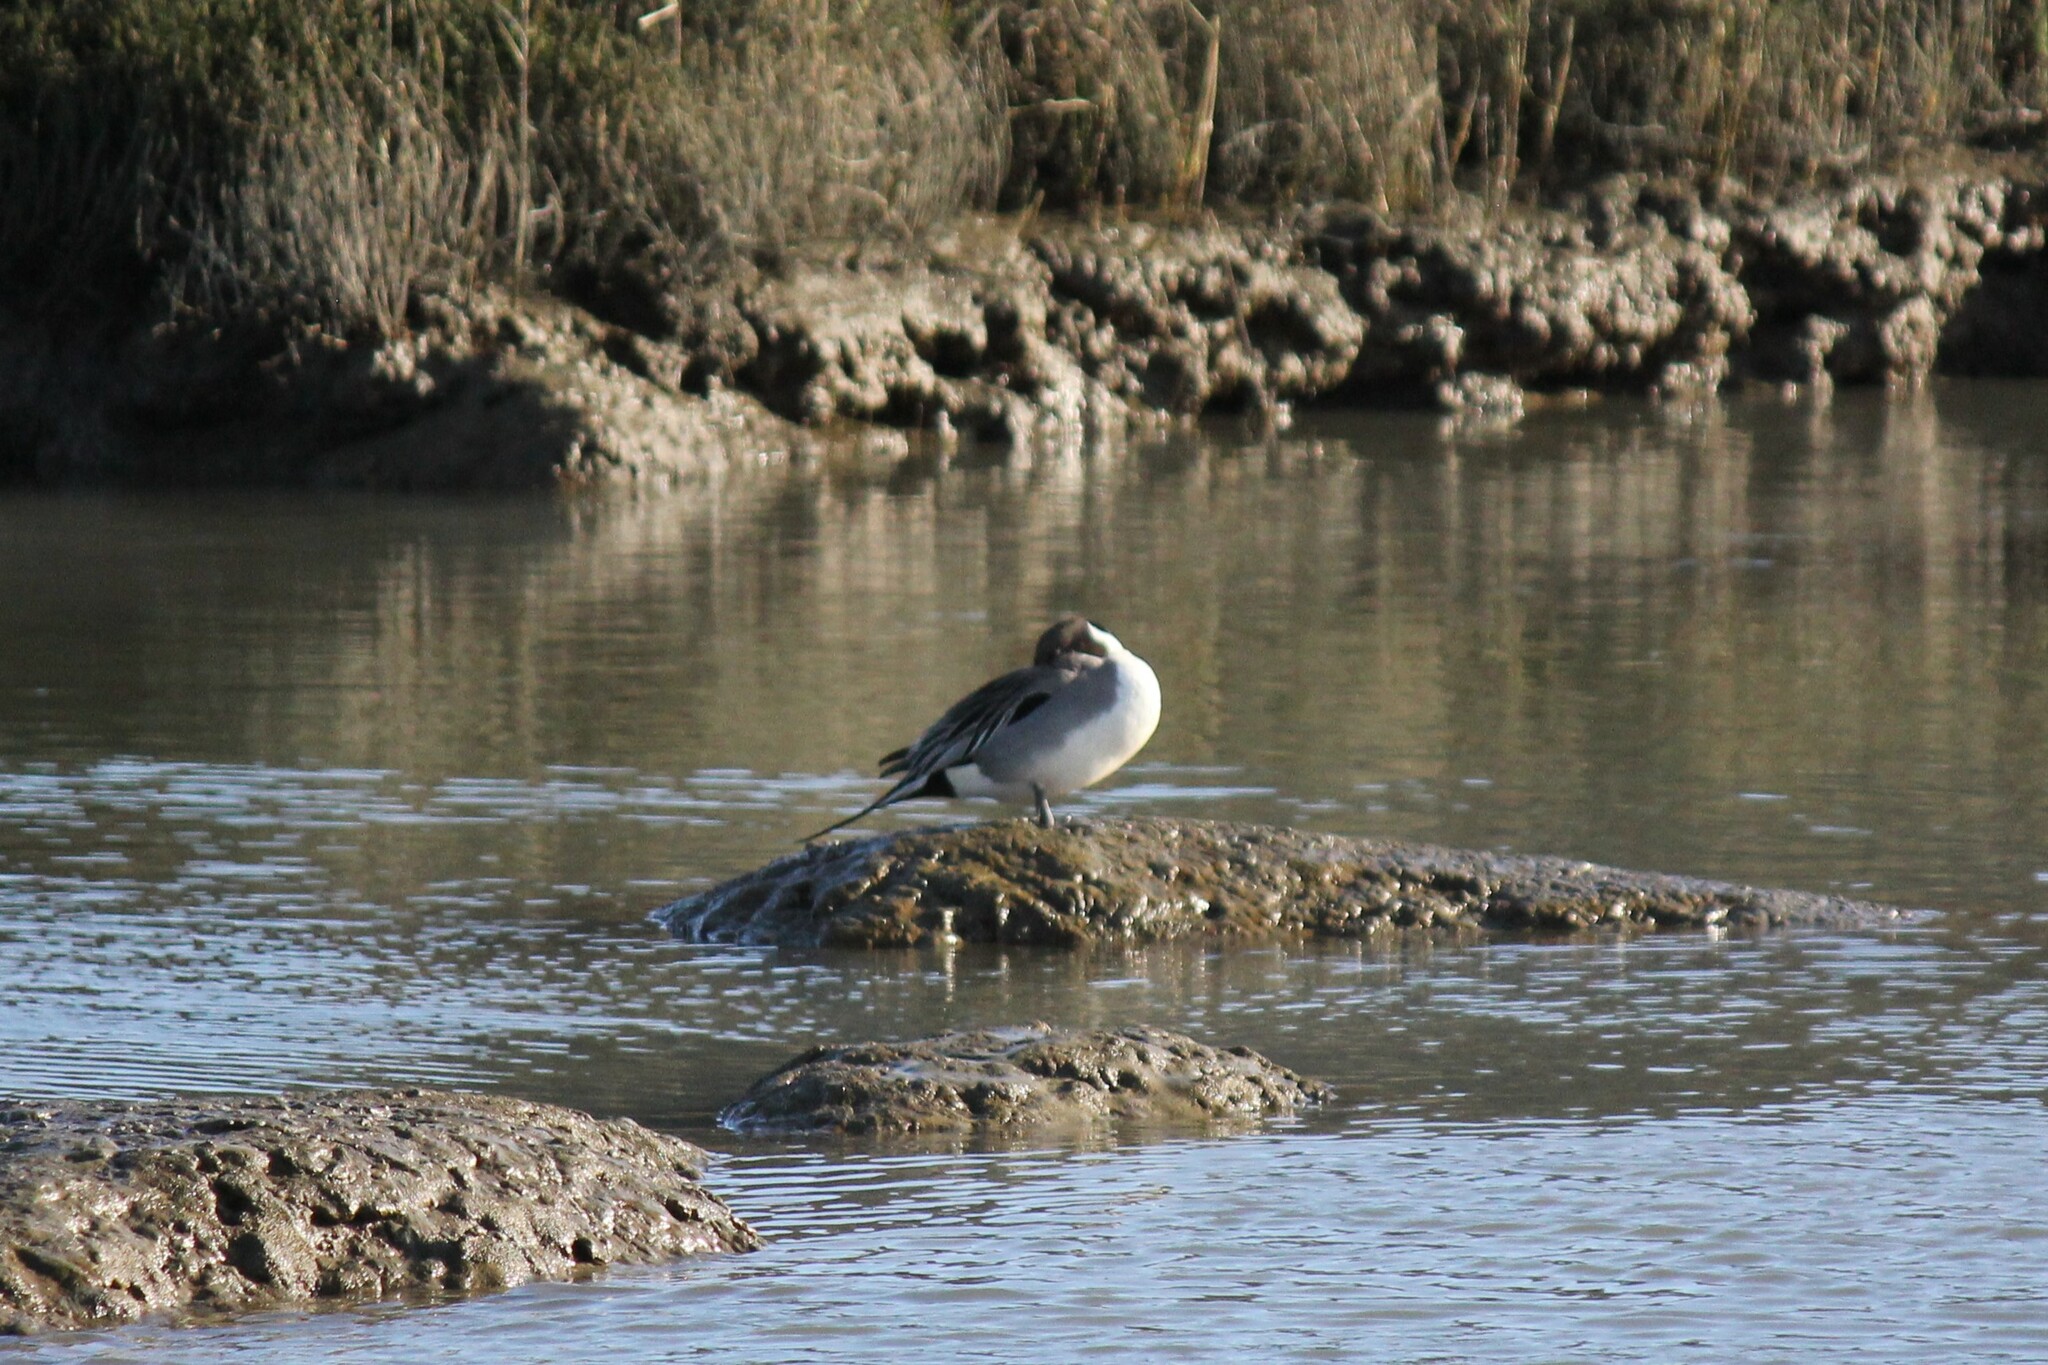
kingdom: Animalia
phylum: Chordata
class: Aves
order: Anseriformes
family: Anatidae
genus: Anas
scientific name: Anas acuta
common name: Northern pintail
